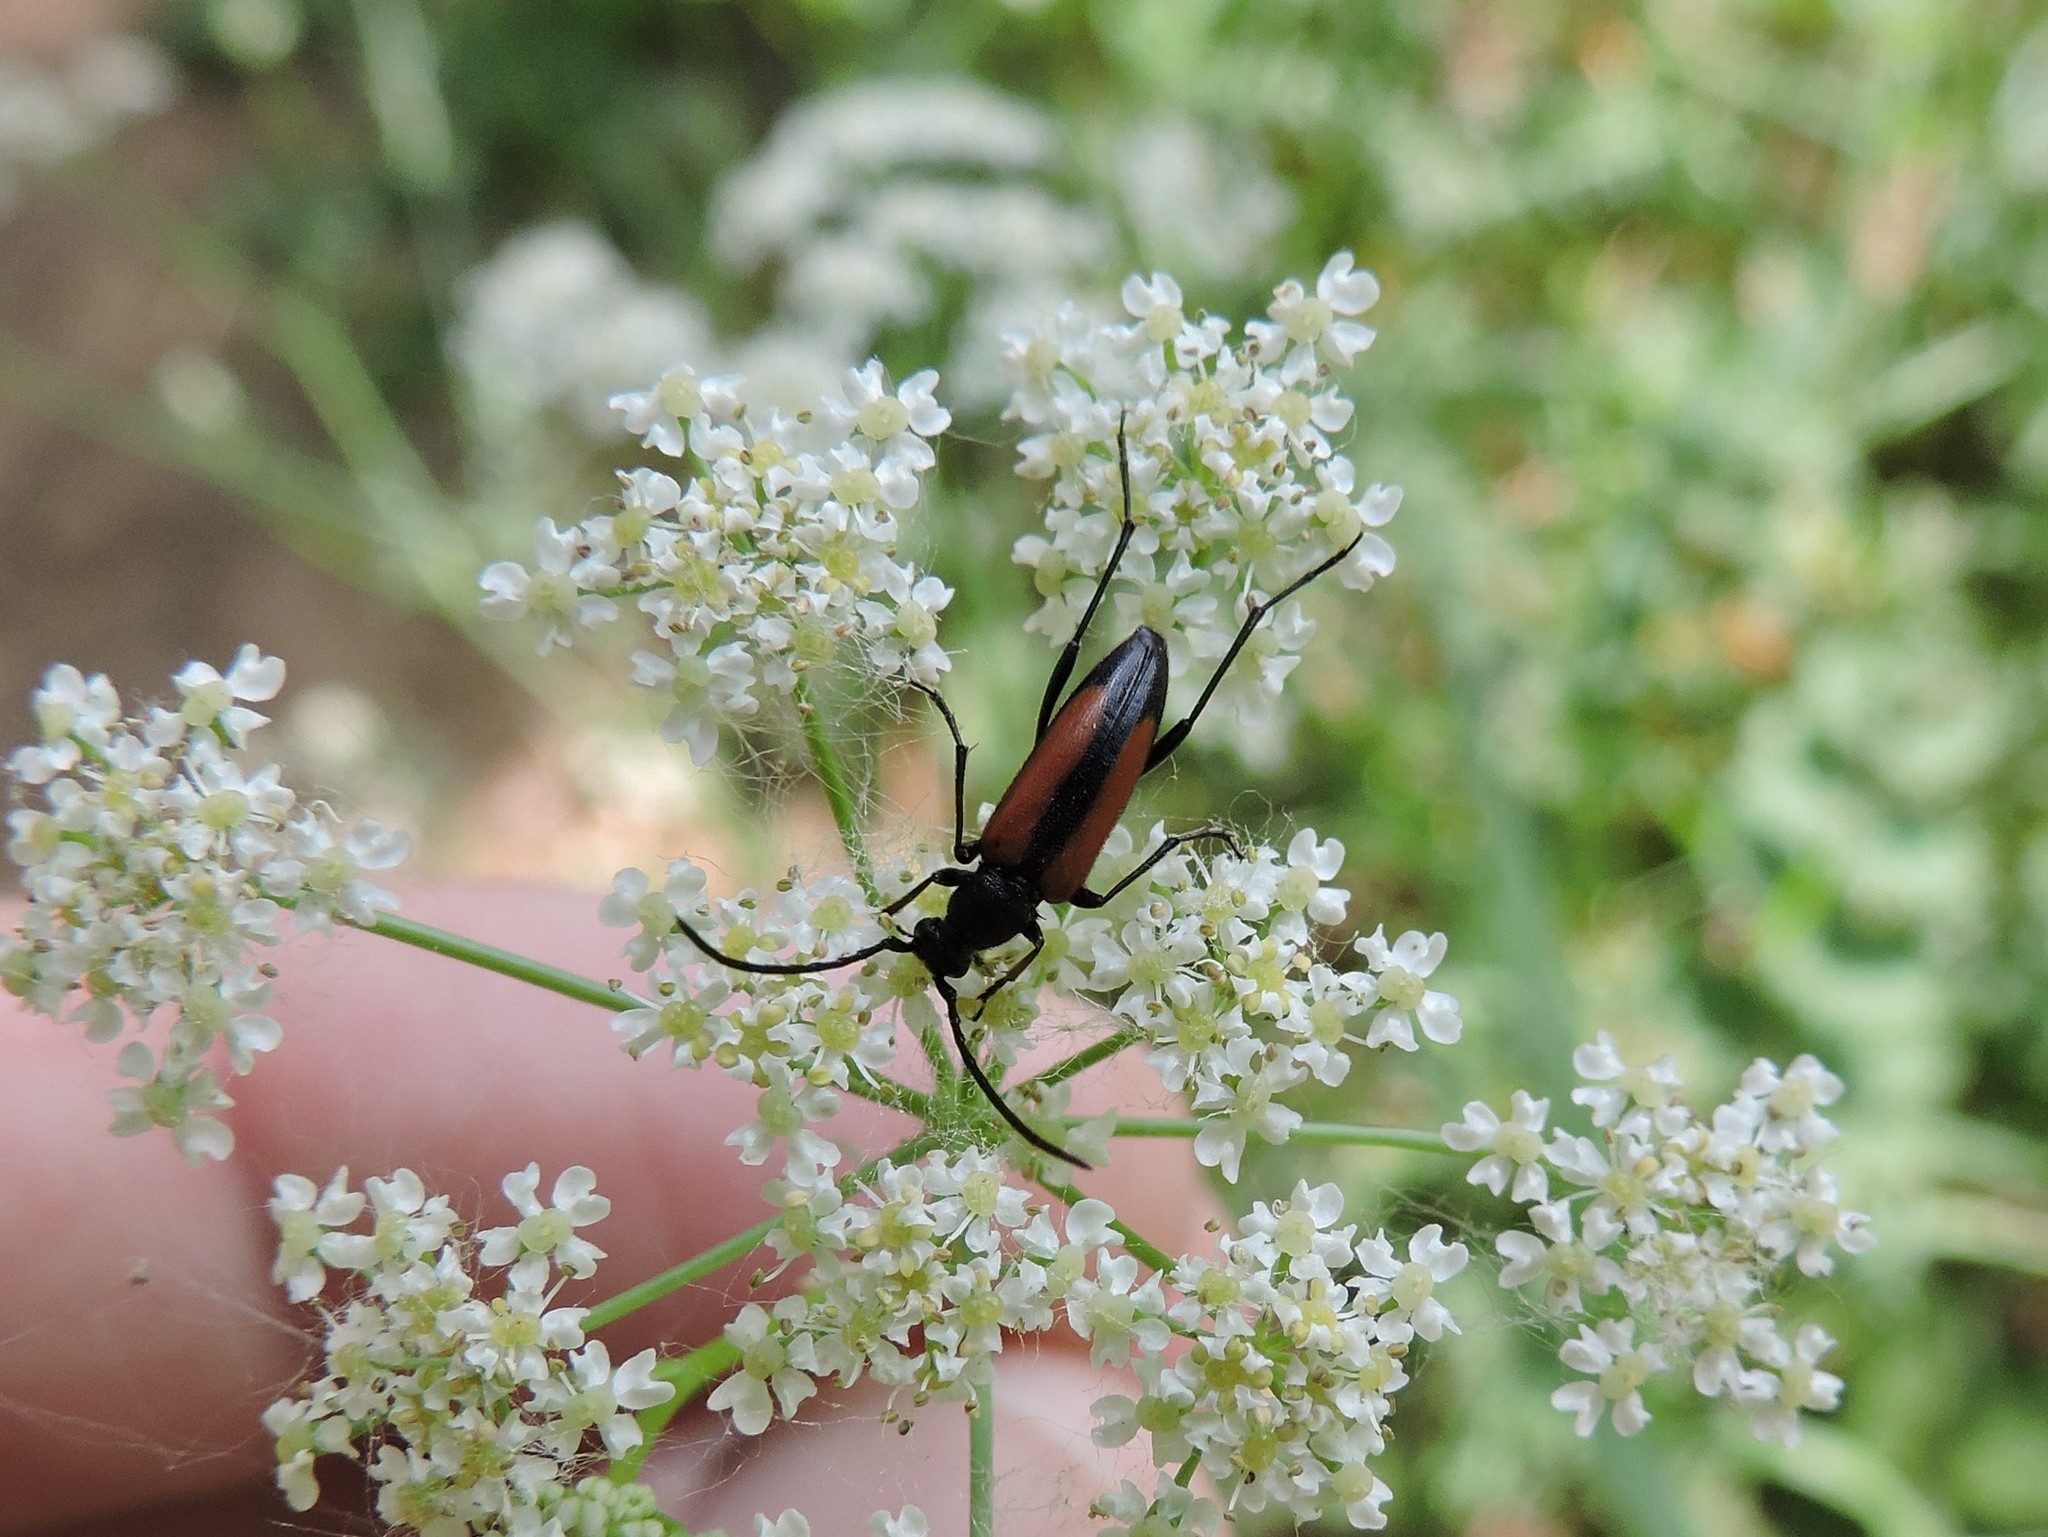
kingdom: Animalia
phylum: Arthropoda
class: Insecta
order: Coleoptera
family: Cerambycidae
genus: Stenurella
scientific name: Stenurella melanura
